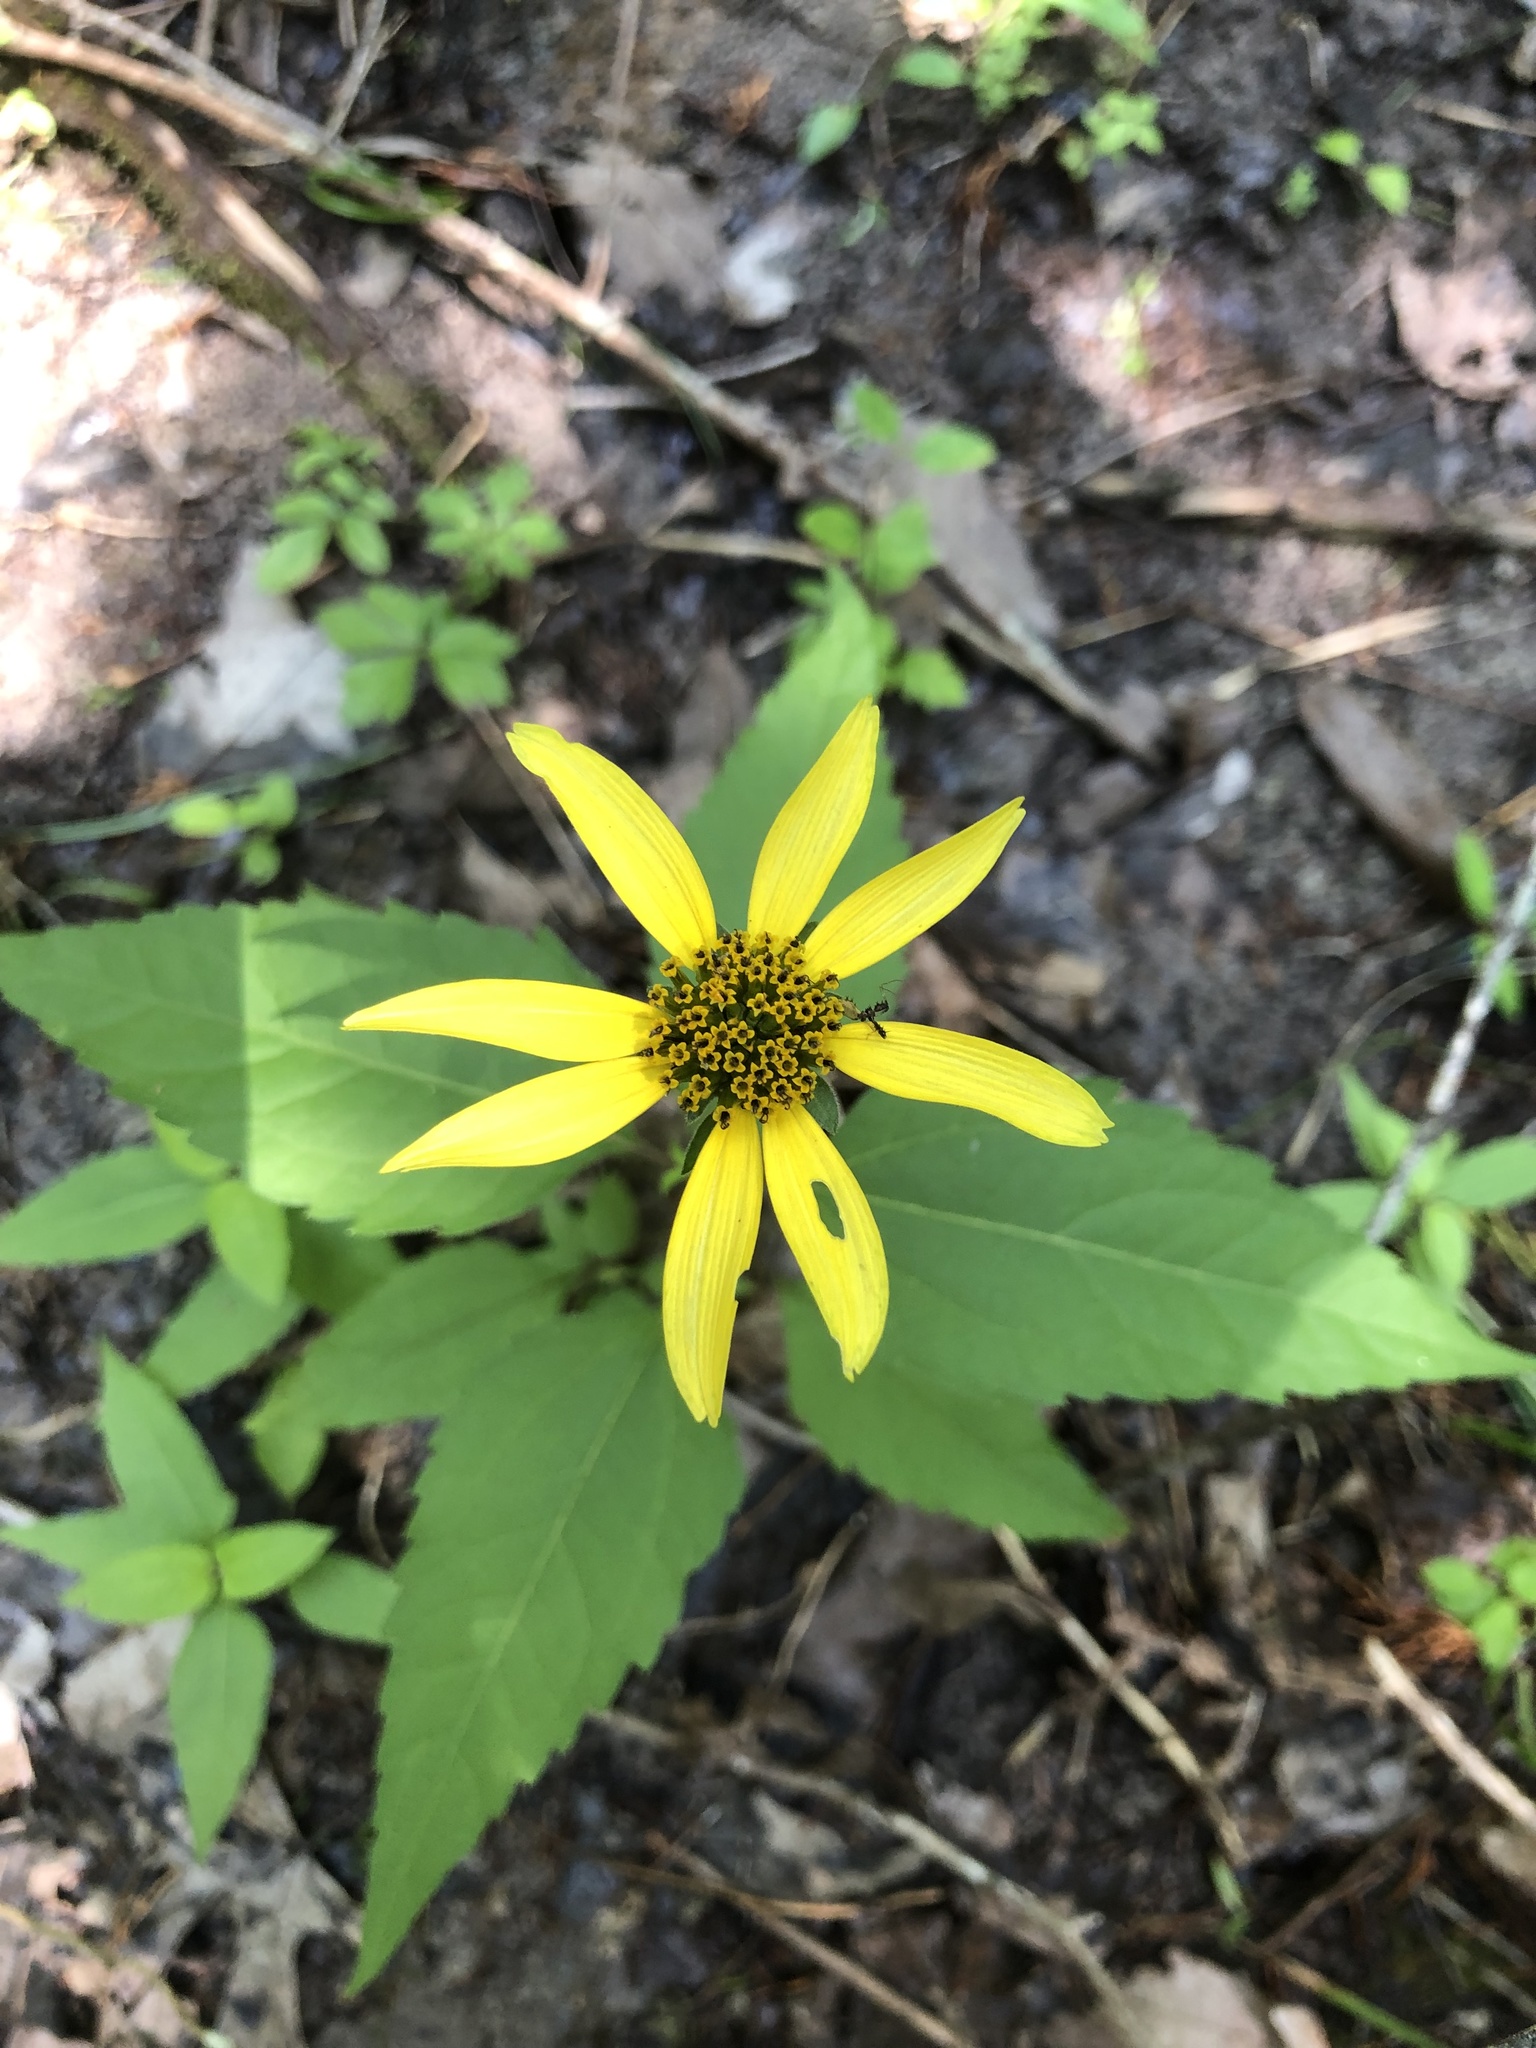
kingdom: Plantae
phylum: Tracheophyta
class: Magnoliopsida
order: Asterales
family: Asteraceae
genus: Heliopsis
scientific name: Heliopsis gracilis
